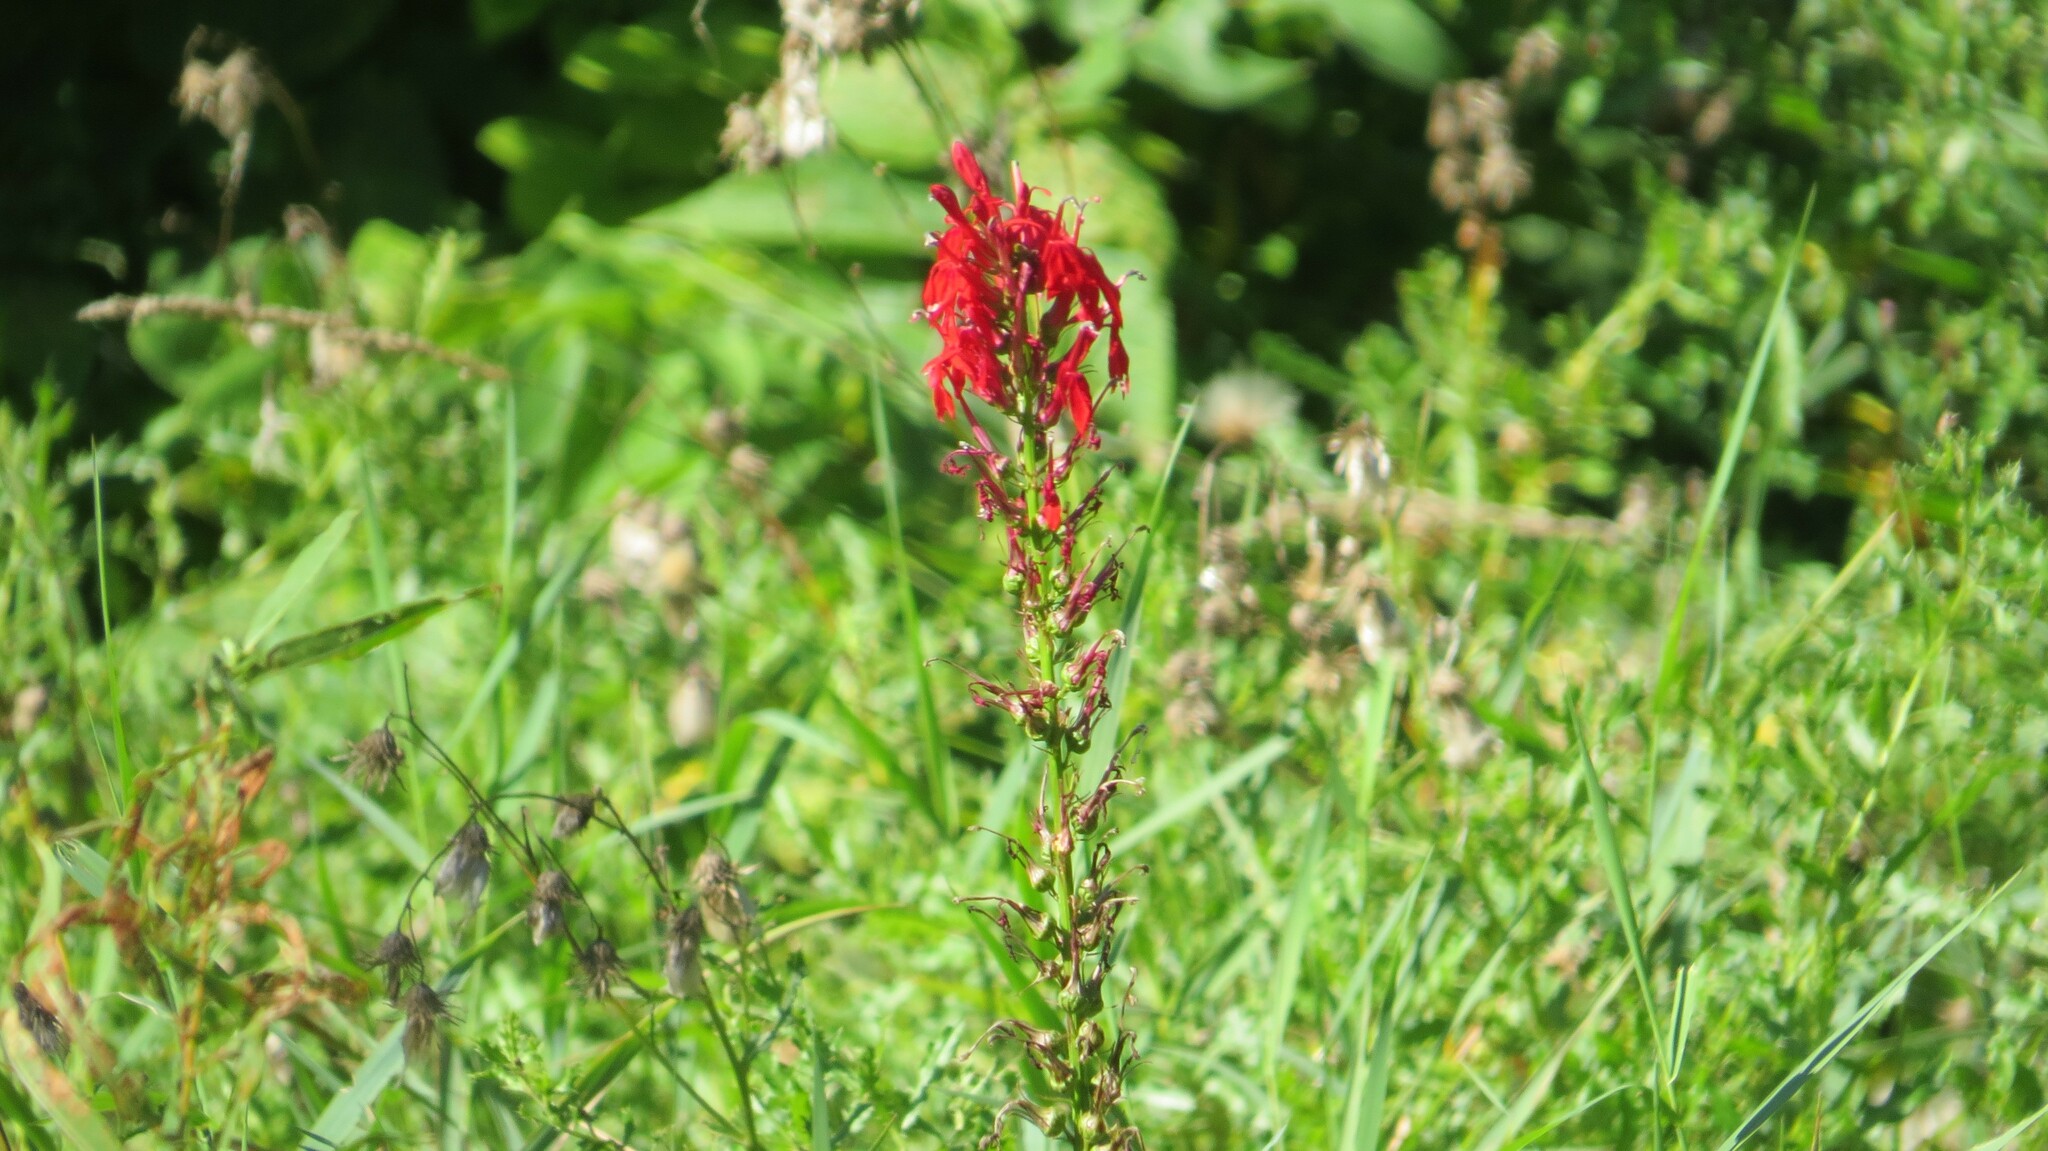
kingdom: Plantae
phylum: Tracheophyta
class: Magnoliopsida
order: Asterales
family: Campanulaceae
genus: Lobelia
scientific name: Lobelia cardinalis
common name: Cardinal flower
